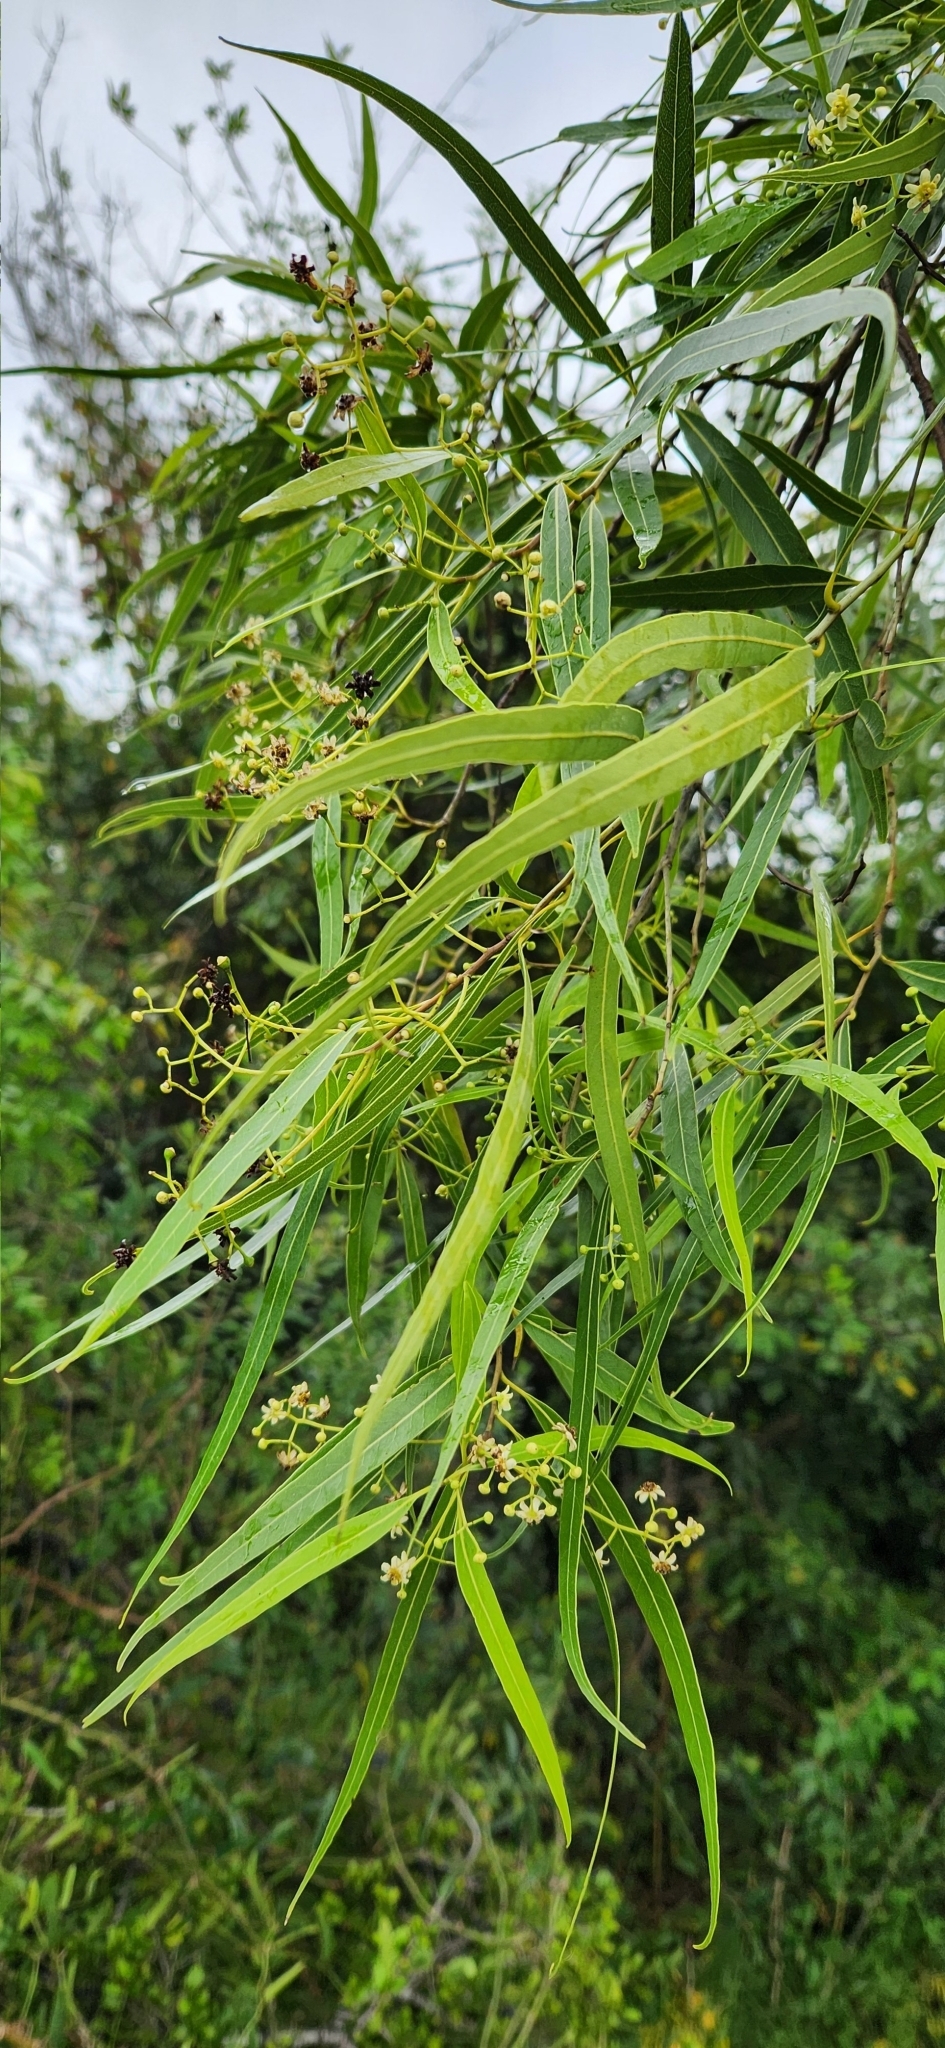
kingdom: Plantae
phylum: Tracheophyta
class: Magnoliopsida
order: Laurales
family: Lauraceae
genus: Nectandra
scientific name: Nectandra angustifolia
